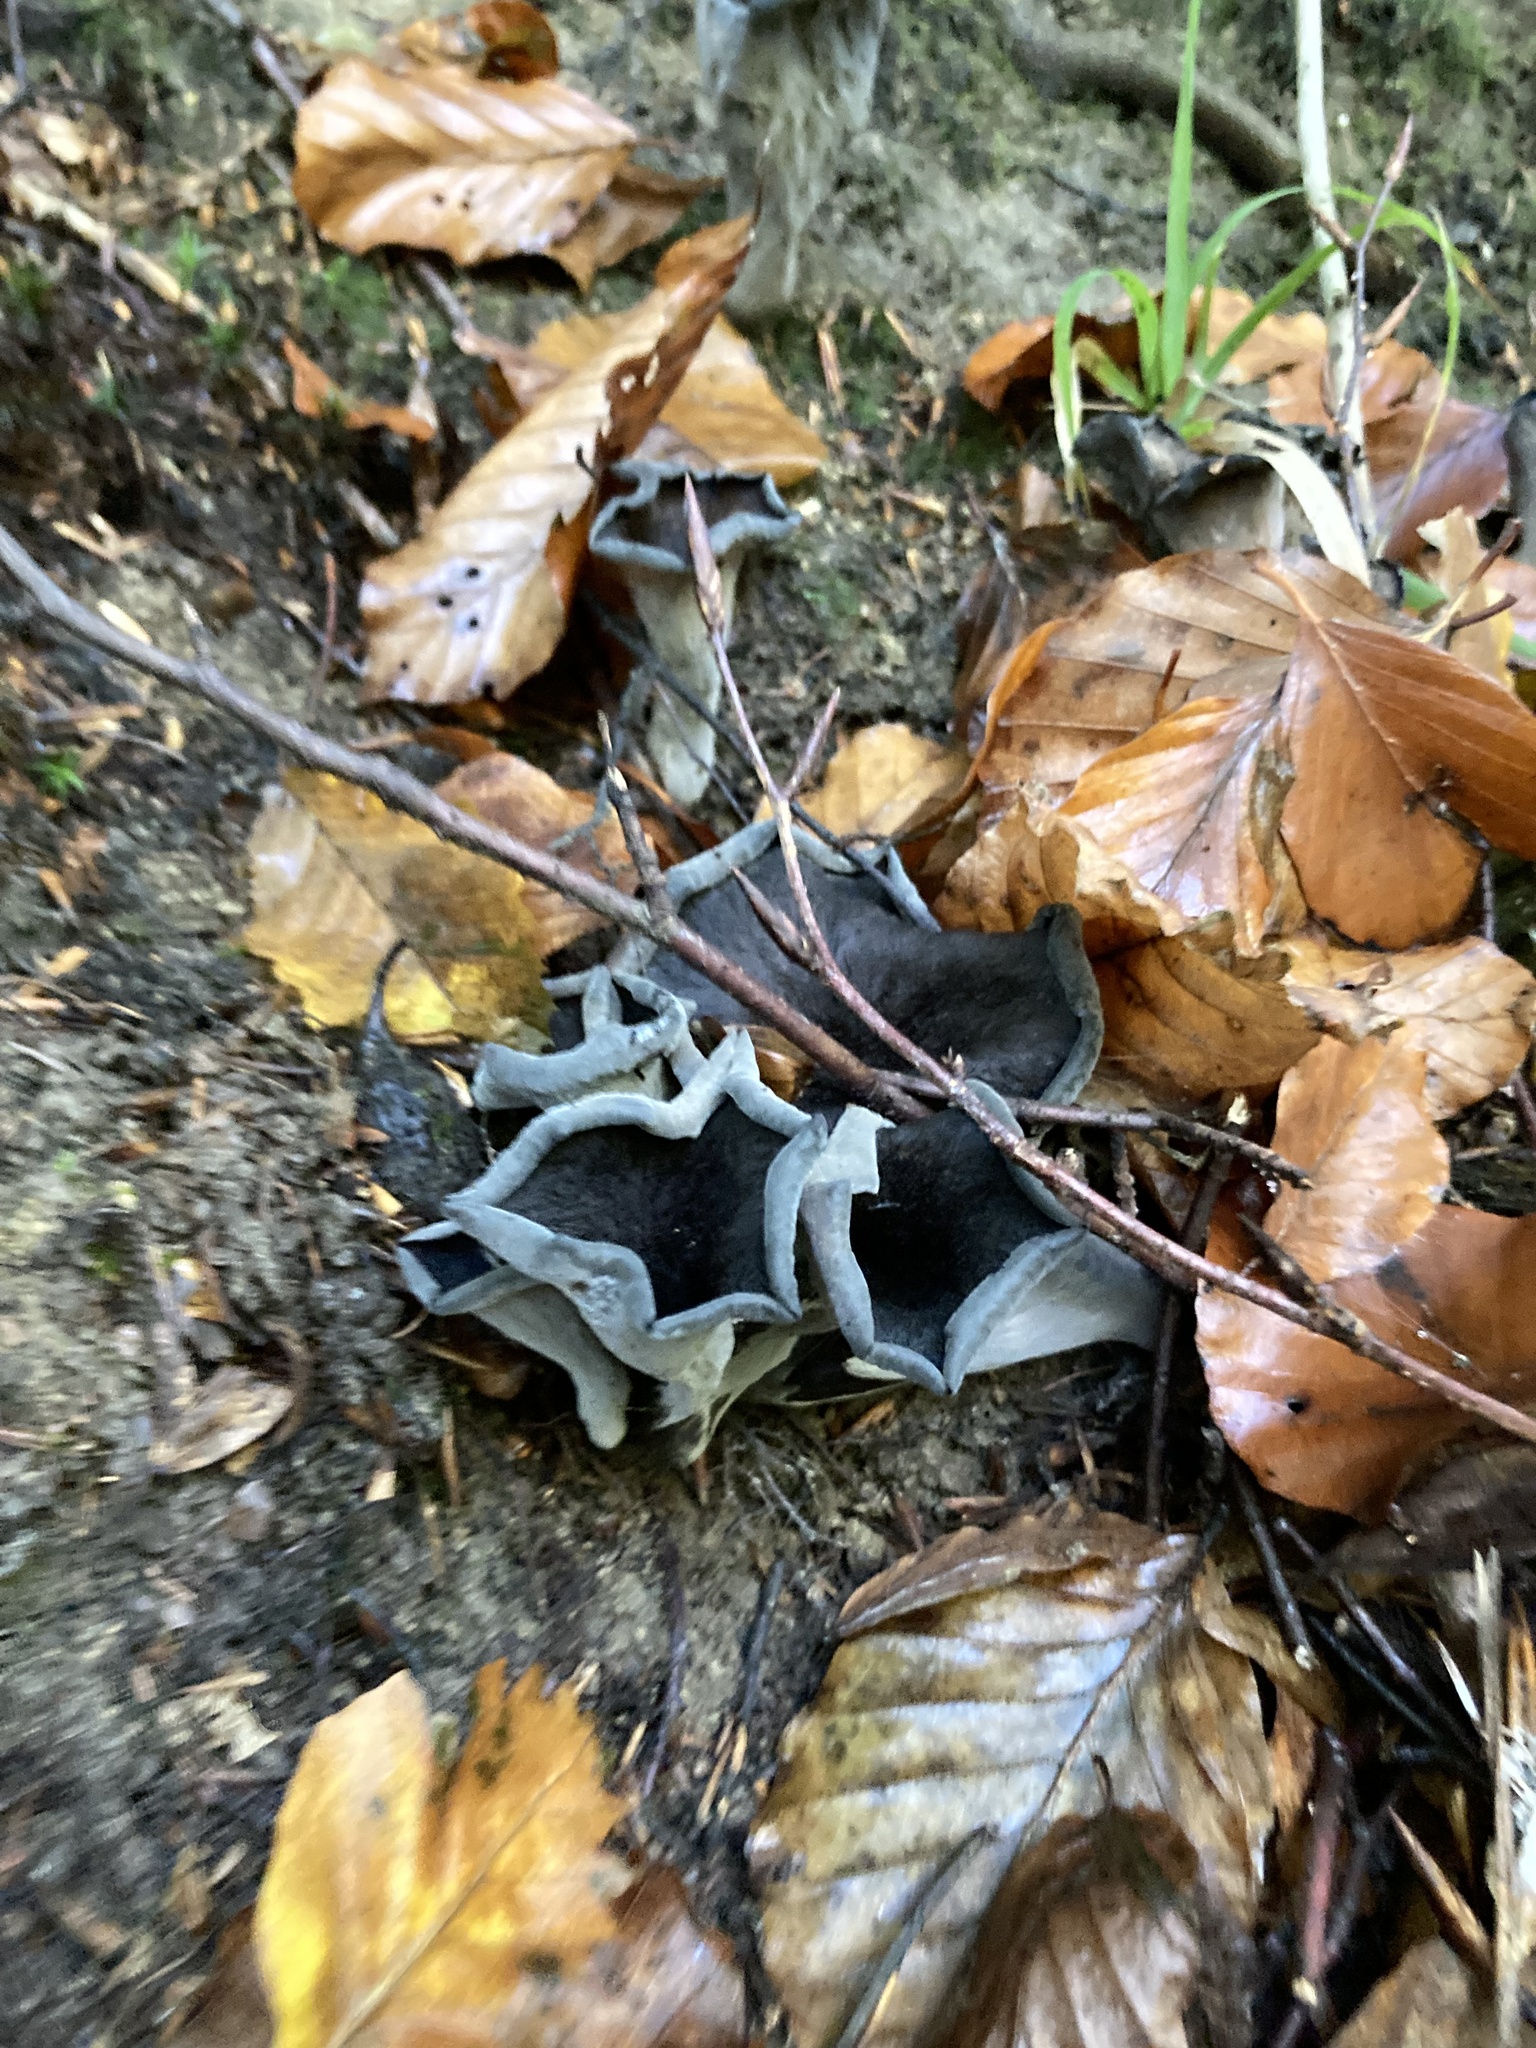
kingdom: Fungi
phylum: Basidiomycota
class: Agaricomycetes
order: Cantharellales
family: Hydnaceae
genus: Craterellus
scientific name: Craterellus cornucopioides
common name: Horn of plenty
